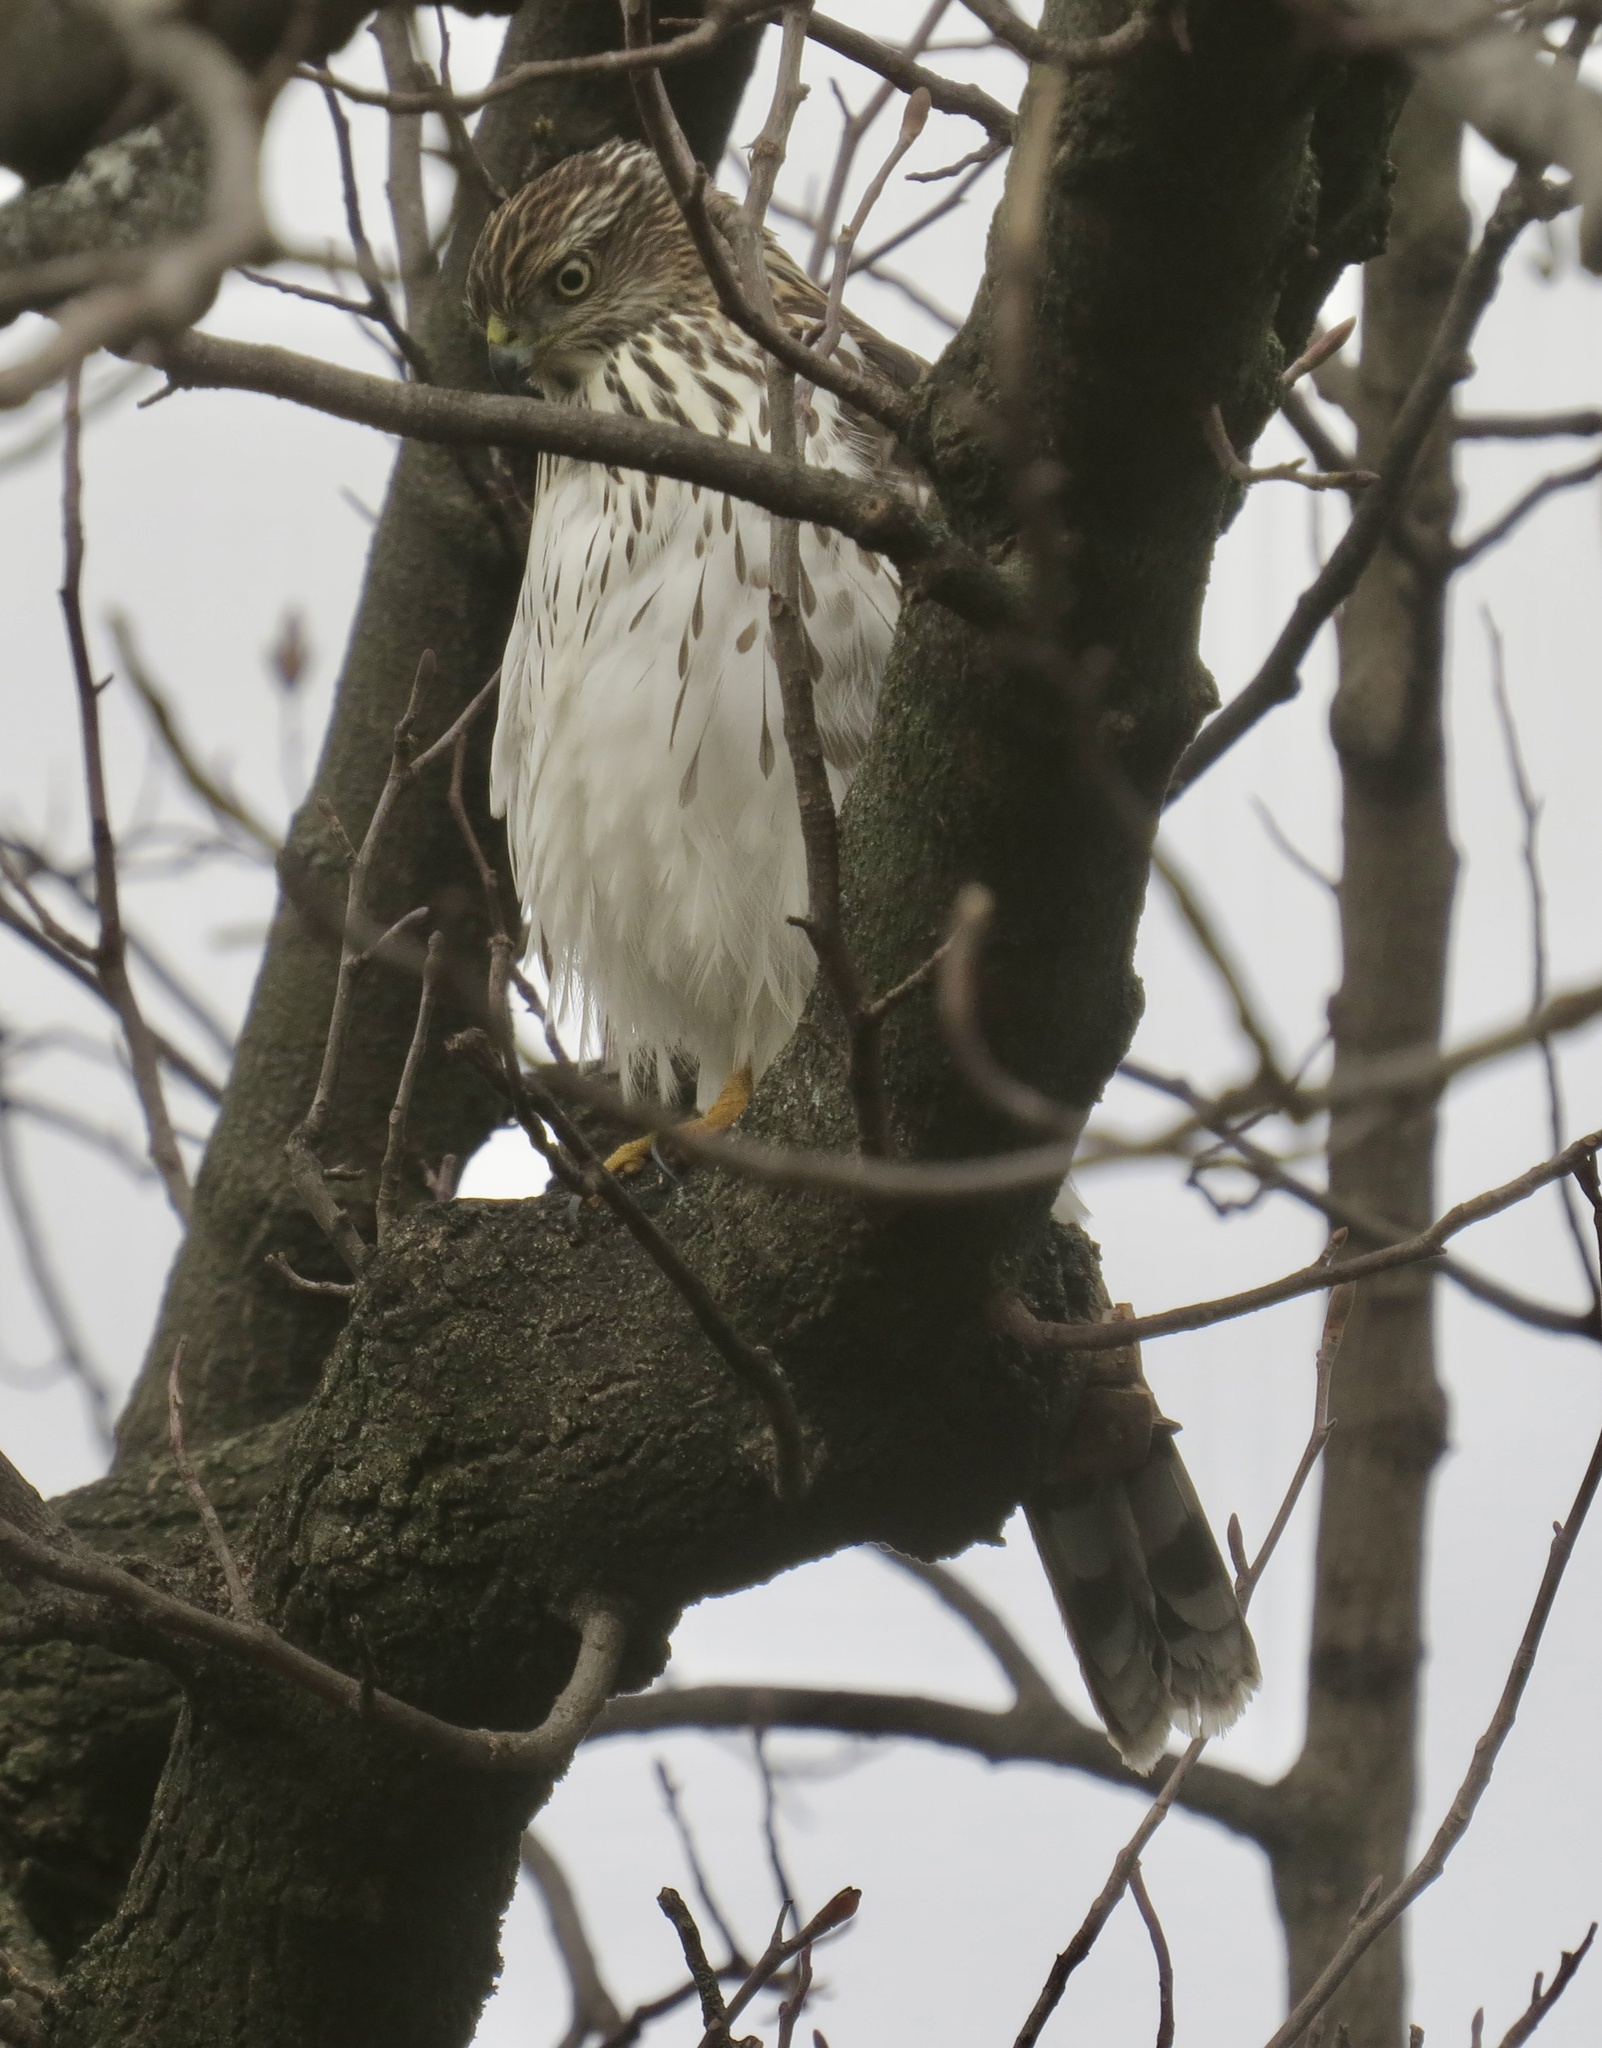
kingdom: Animalia
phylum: Chordata
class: Aves
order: Accipitriformes
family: Accipitridae
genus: Accipiter
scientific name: Accipiter cooperii
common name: Cooper's hawk
